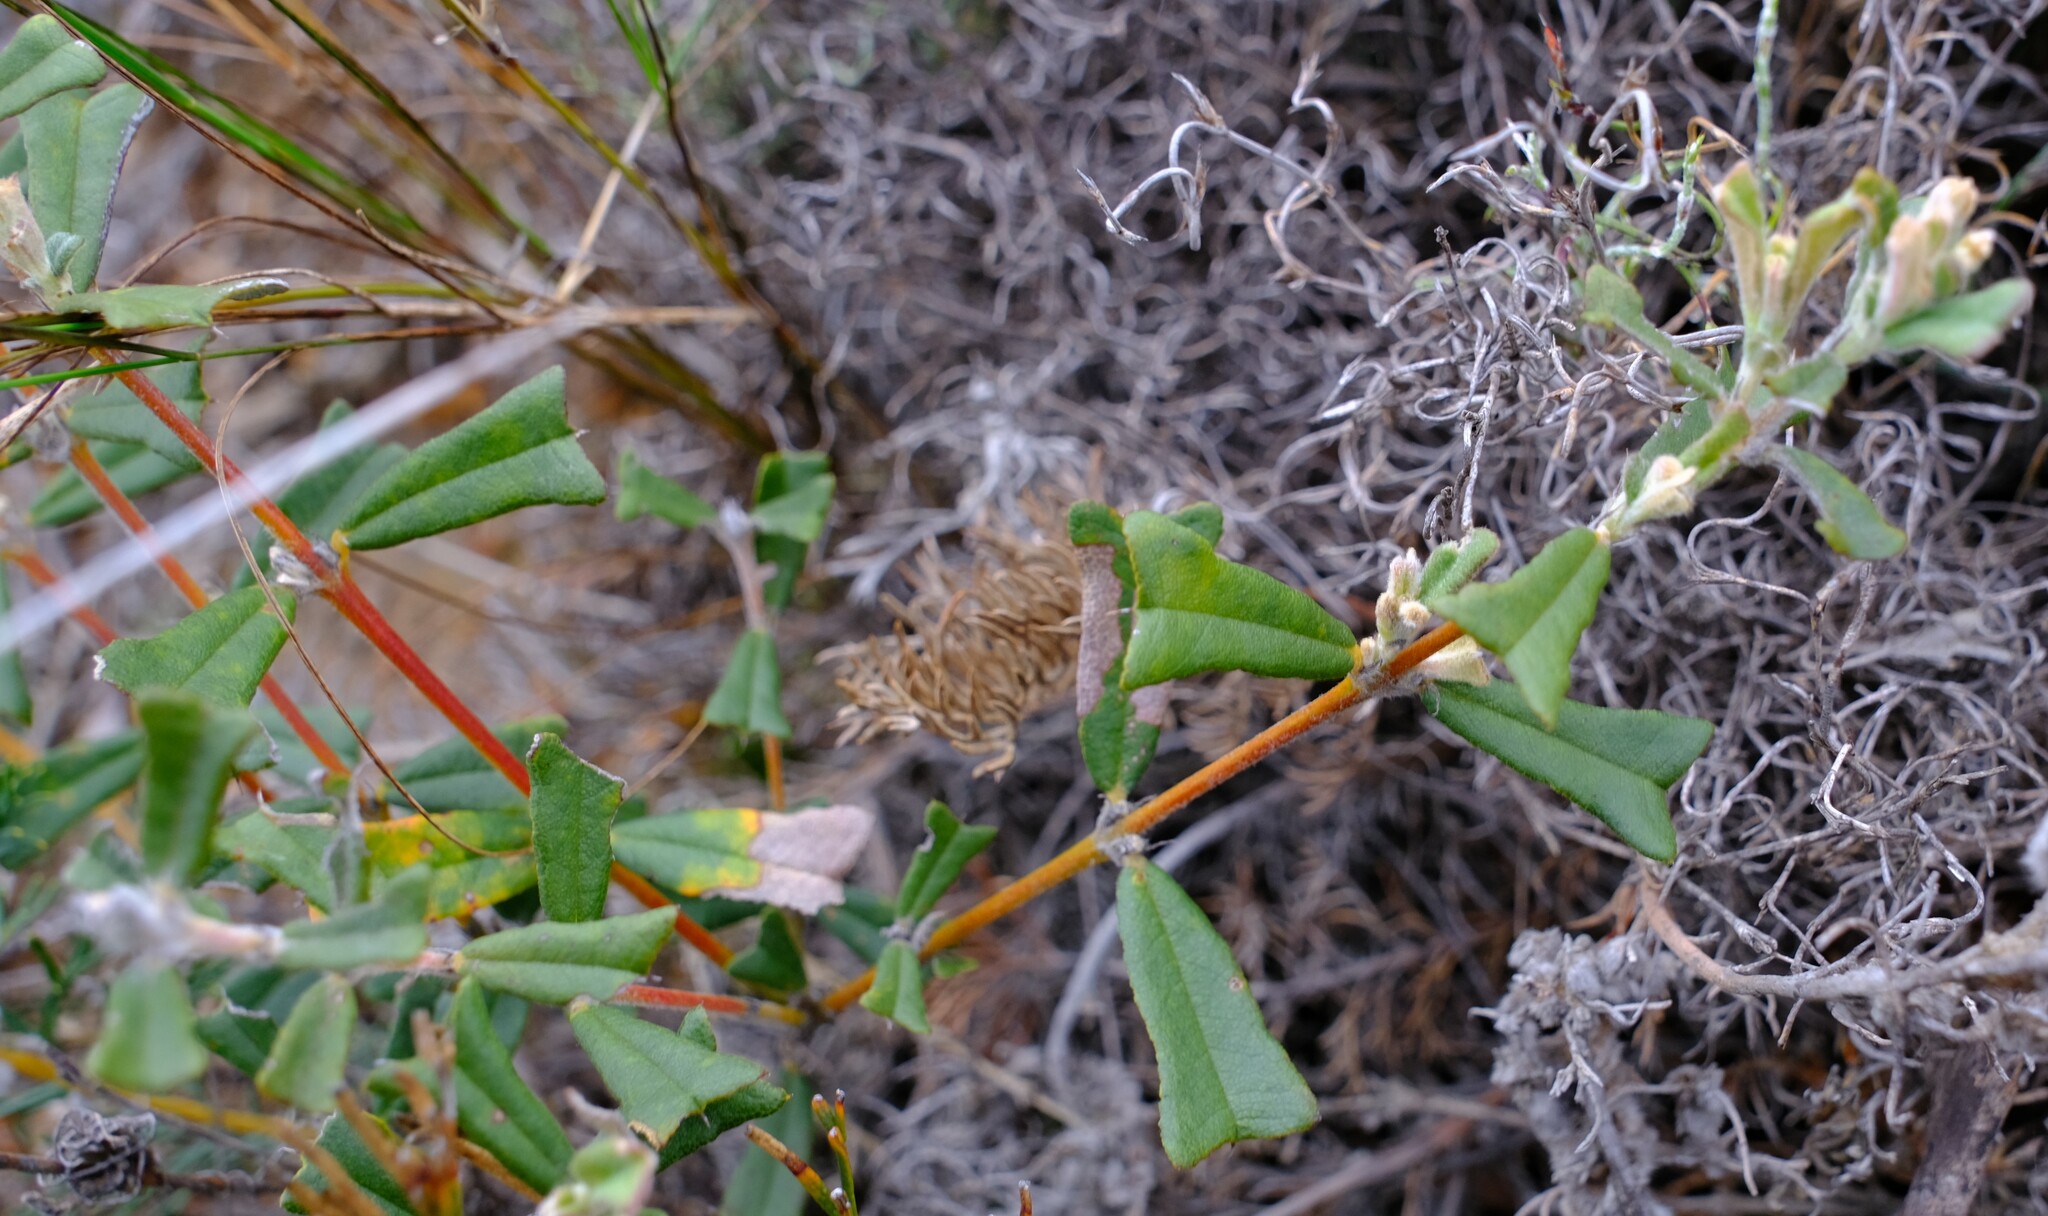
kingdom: Plantae
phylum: Tracheophyta
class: Magnoliopsida
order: Fabales
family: Fabaceae
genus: Gastrolobium
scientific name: Gastrolobium polystachyum
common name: Hill river poison
